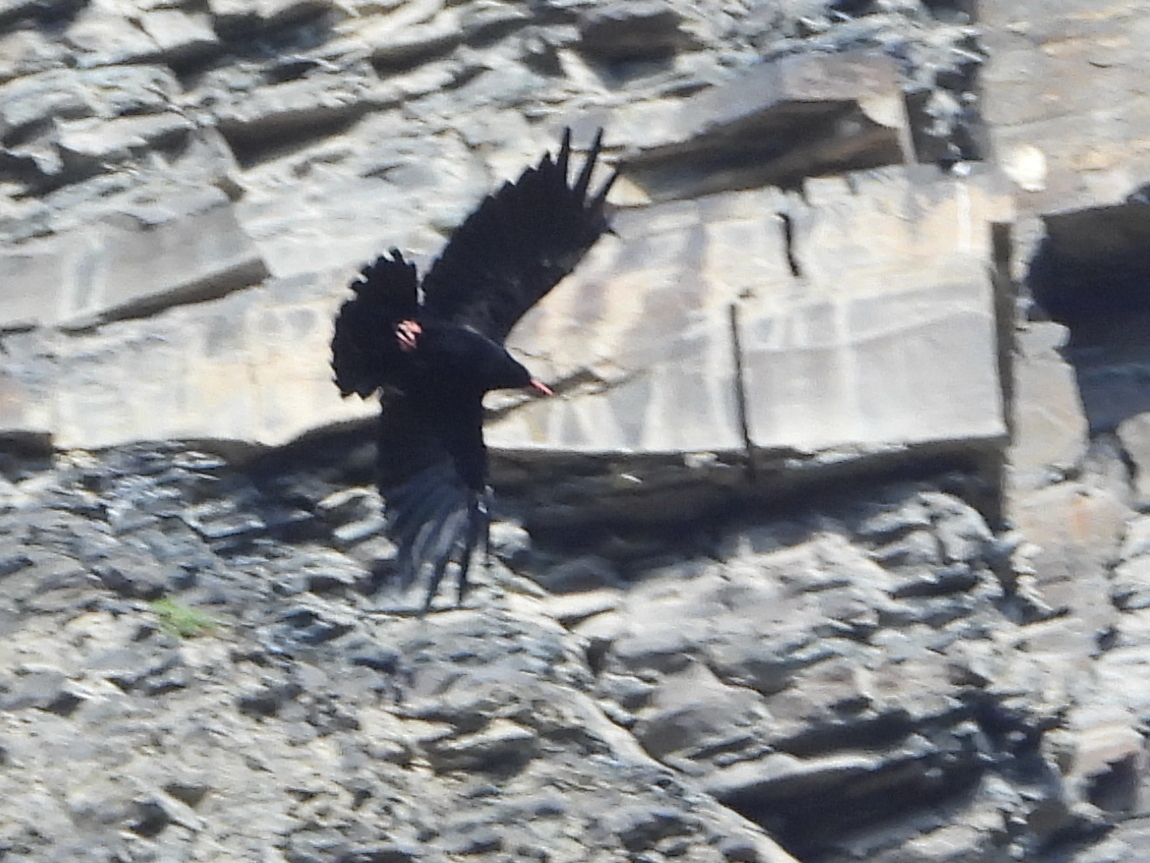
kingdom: Animalia
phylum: Chordata
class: Aves
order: Passeriformes
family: Corvidae
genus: Pyrrhocorax
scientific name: Pyrrhocorax pyrrhocorax
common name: Red-billed chough
